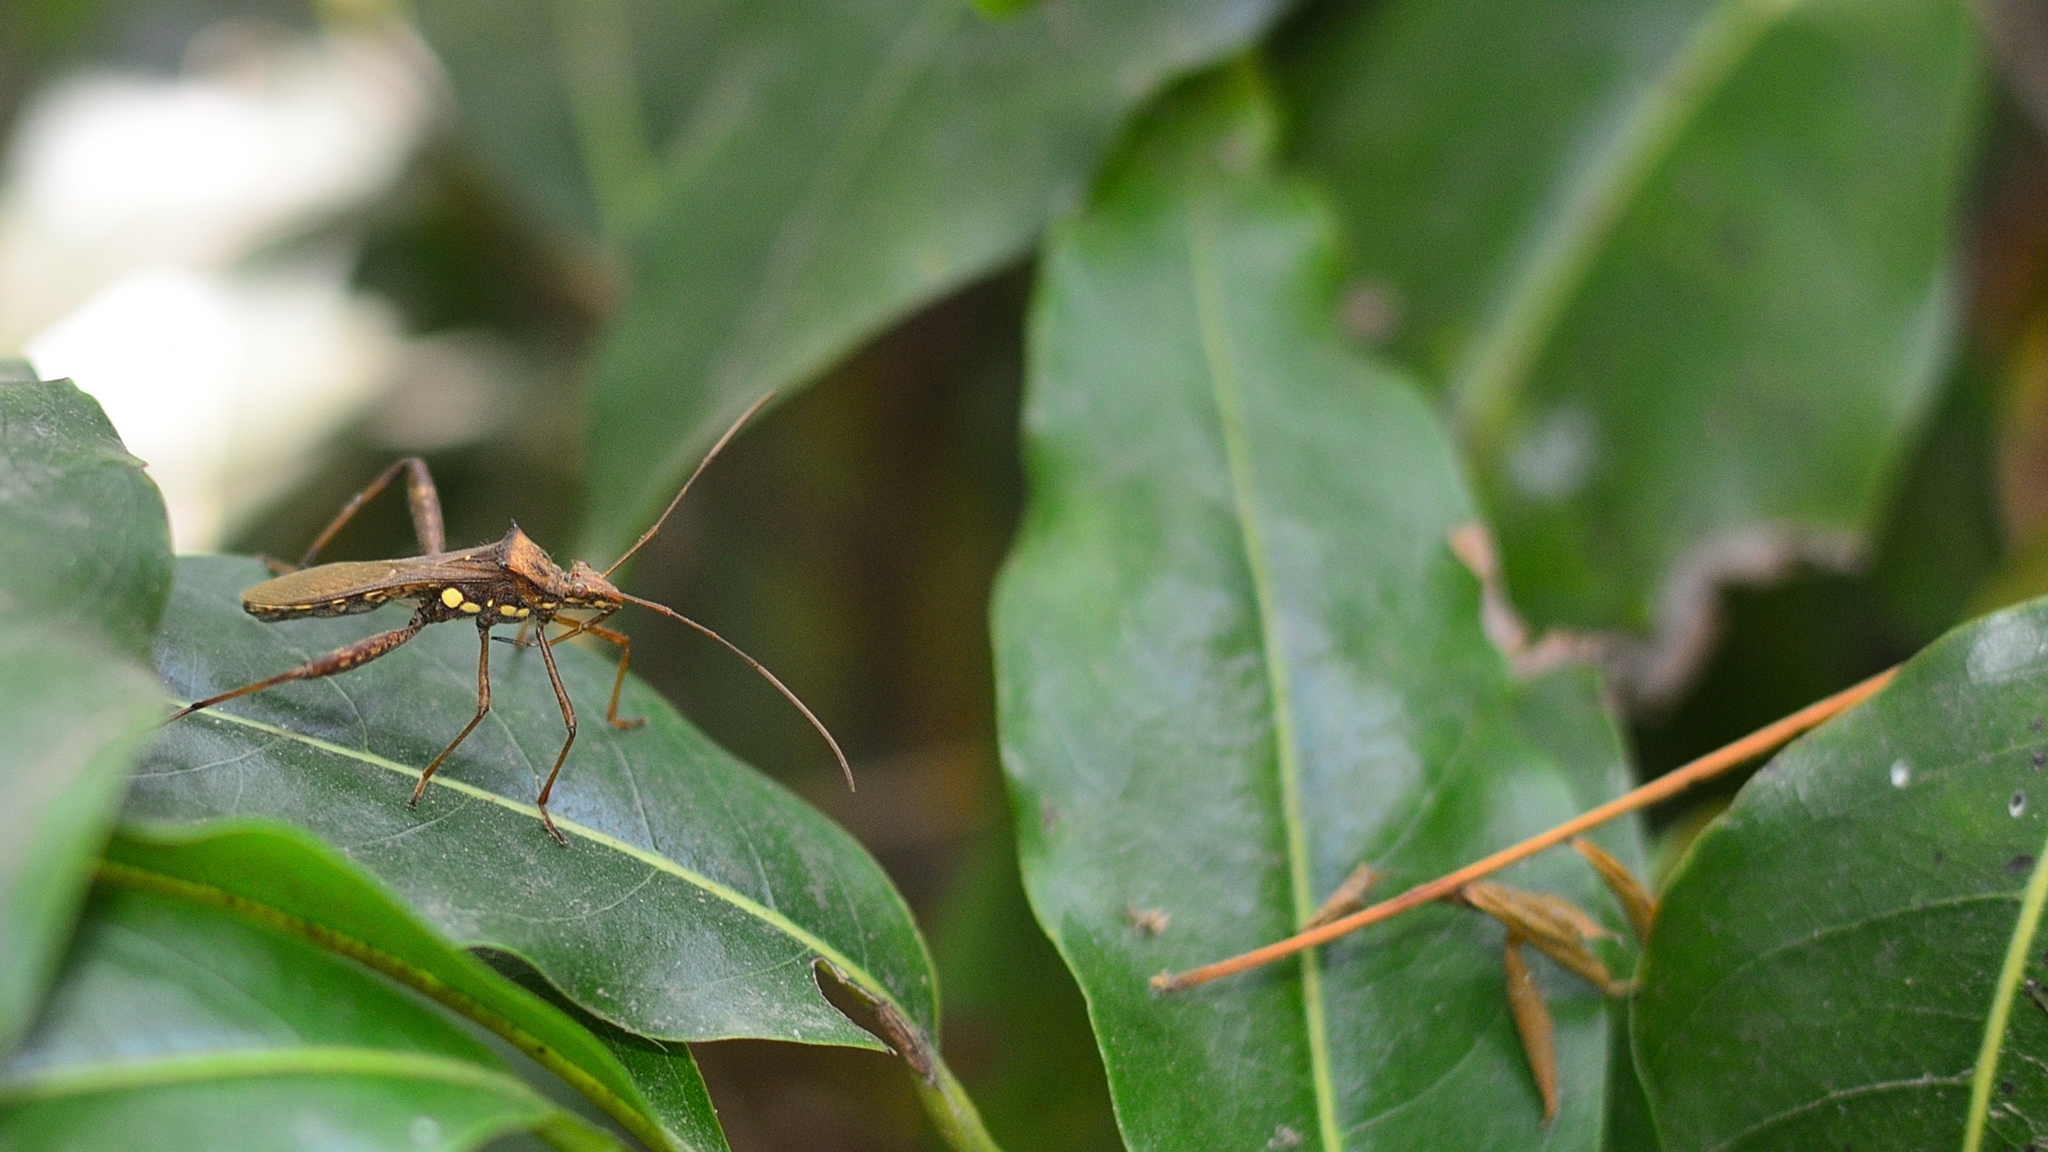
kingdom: Animalia
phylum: Arthropoda
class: Insecta
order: Hemiptera
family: Alydidae
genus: Riptortus
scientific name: Riptortus pedestris
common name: Bean bug
